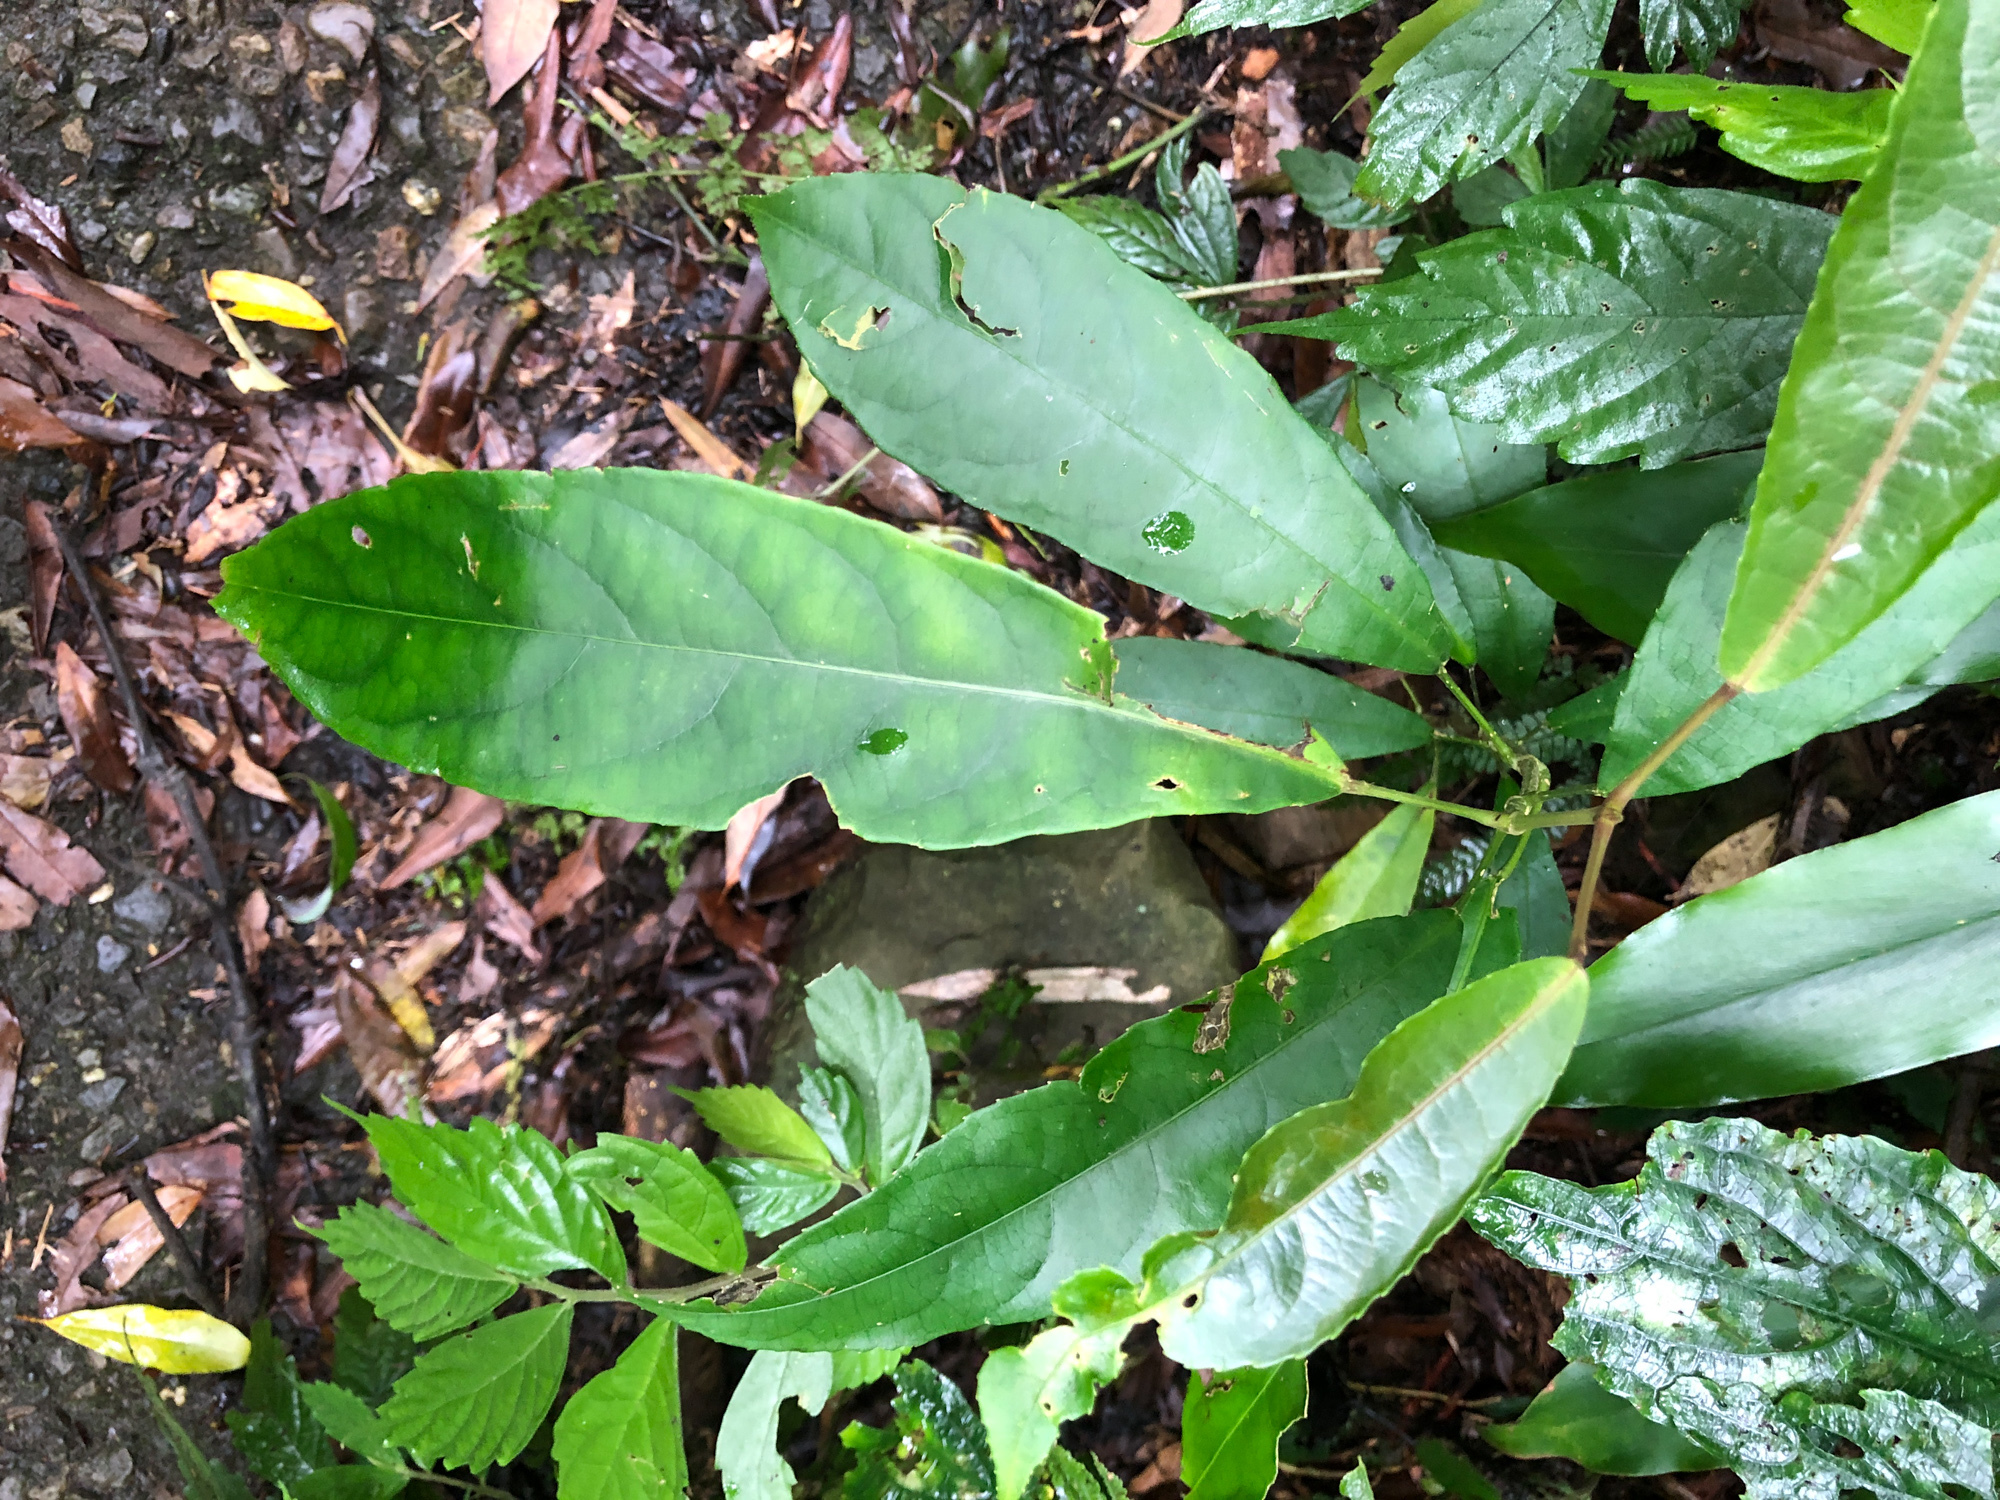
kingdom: Plantae
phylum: Tracheophyta
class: Magnoliopsida
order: Crossosomatales
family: Staphyleaceae
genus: Turpinia
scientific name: Turpinia formosana
